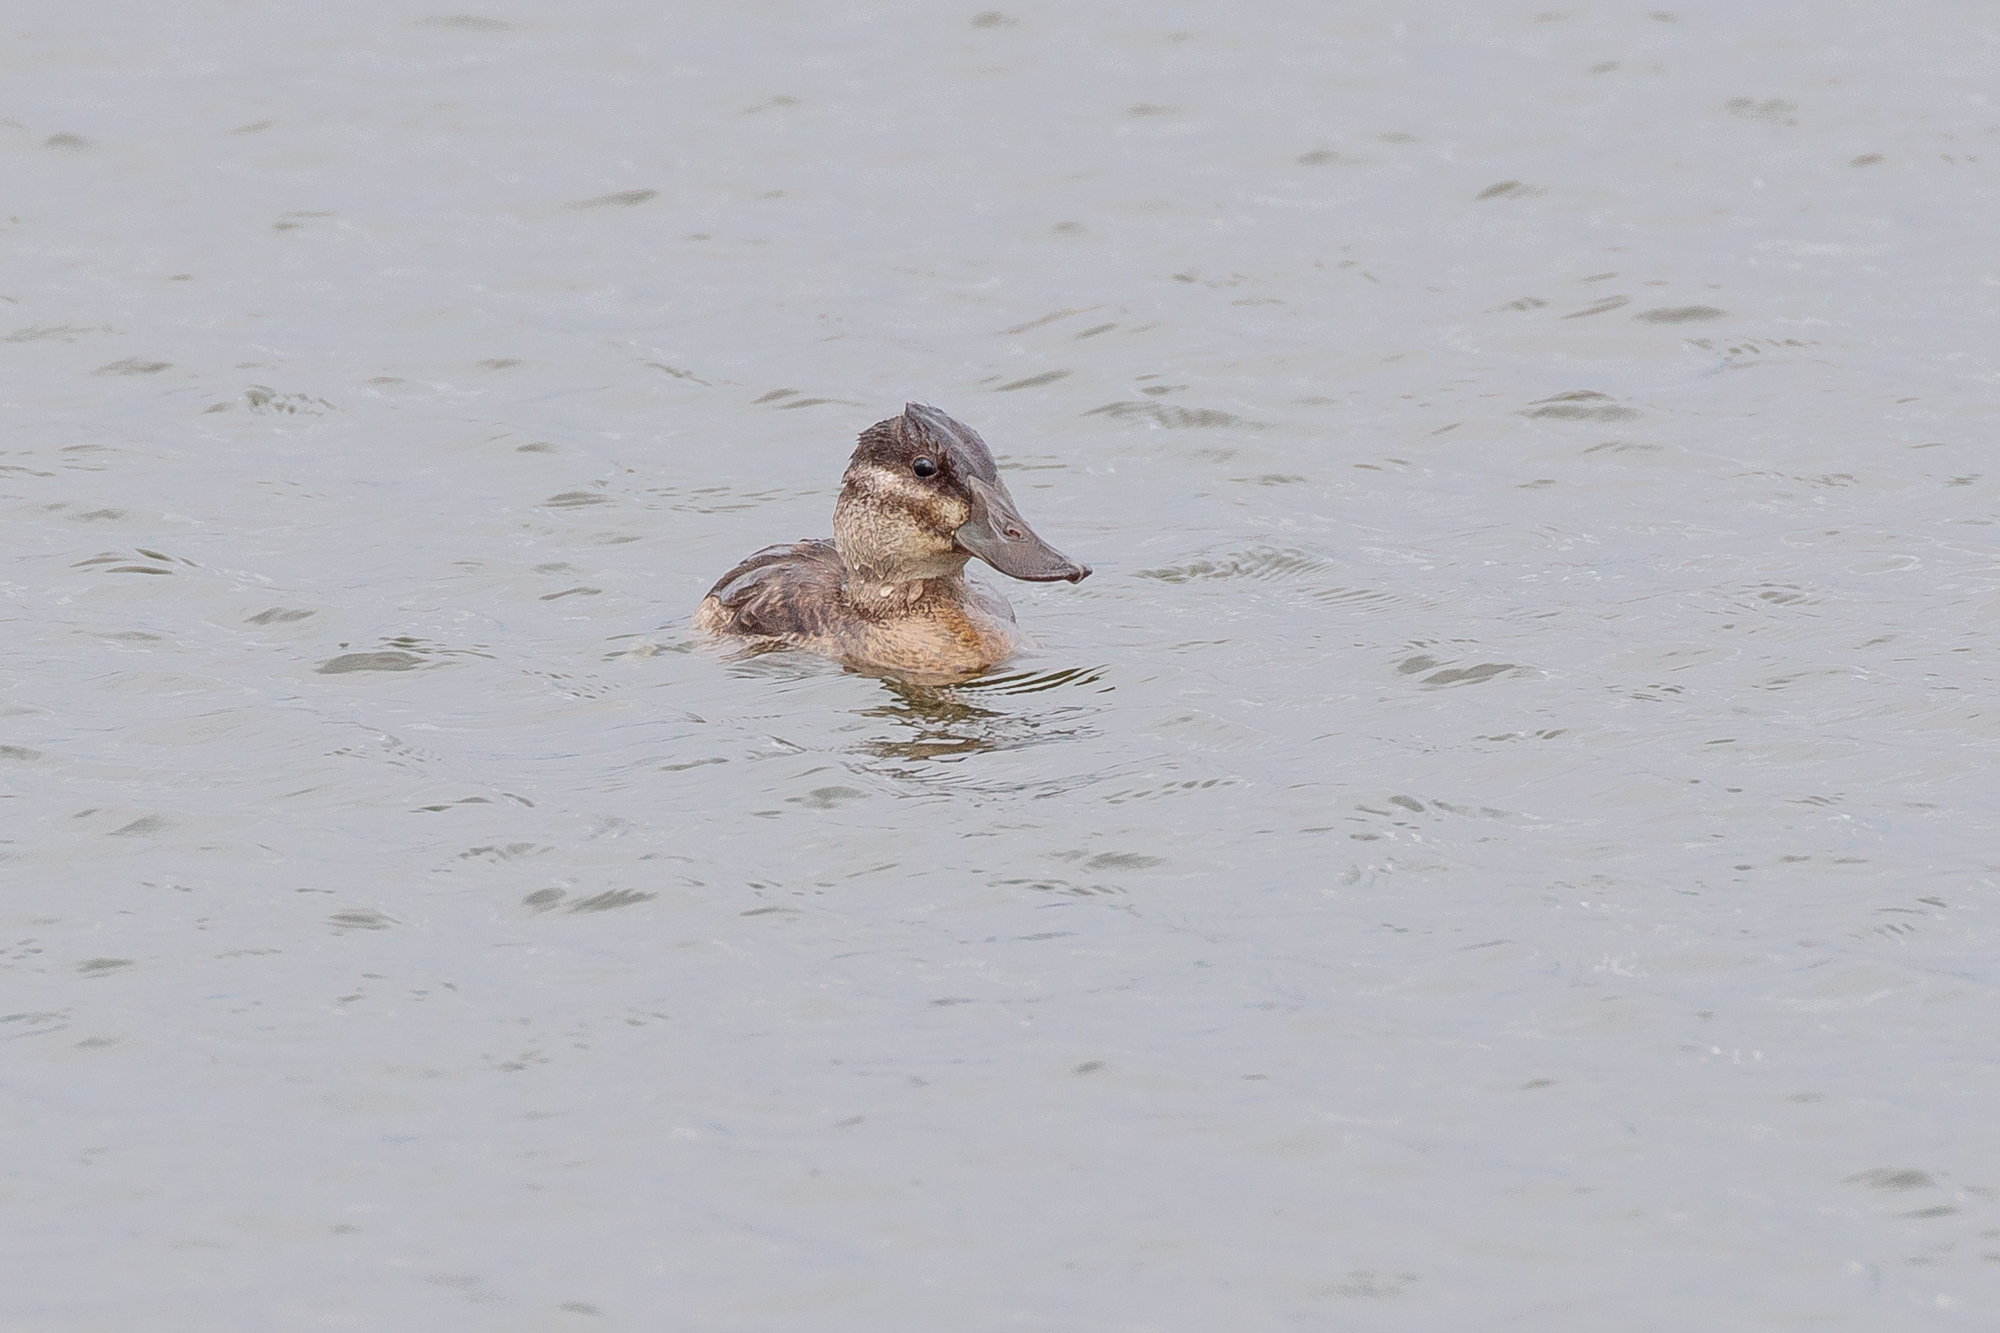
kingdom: Animalia
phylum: Chordata
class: Aves
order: Anseriformes
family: Anatidae
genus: Oxyura
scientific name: Oxyura jamaicensis
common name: Ruddy duck
